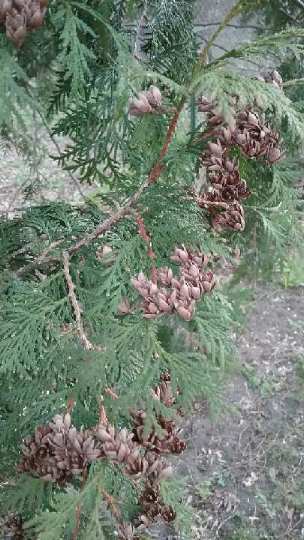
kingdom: Plantae
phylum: Tracheophyta
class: Pinopsida
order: Pinales
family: Cupressaceae
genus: Thuja
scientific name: Thuja occidentalis
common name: Northern white-cedar
